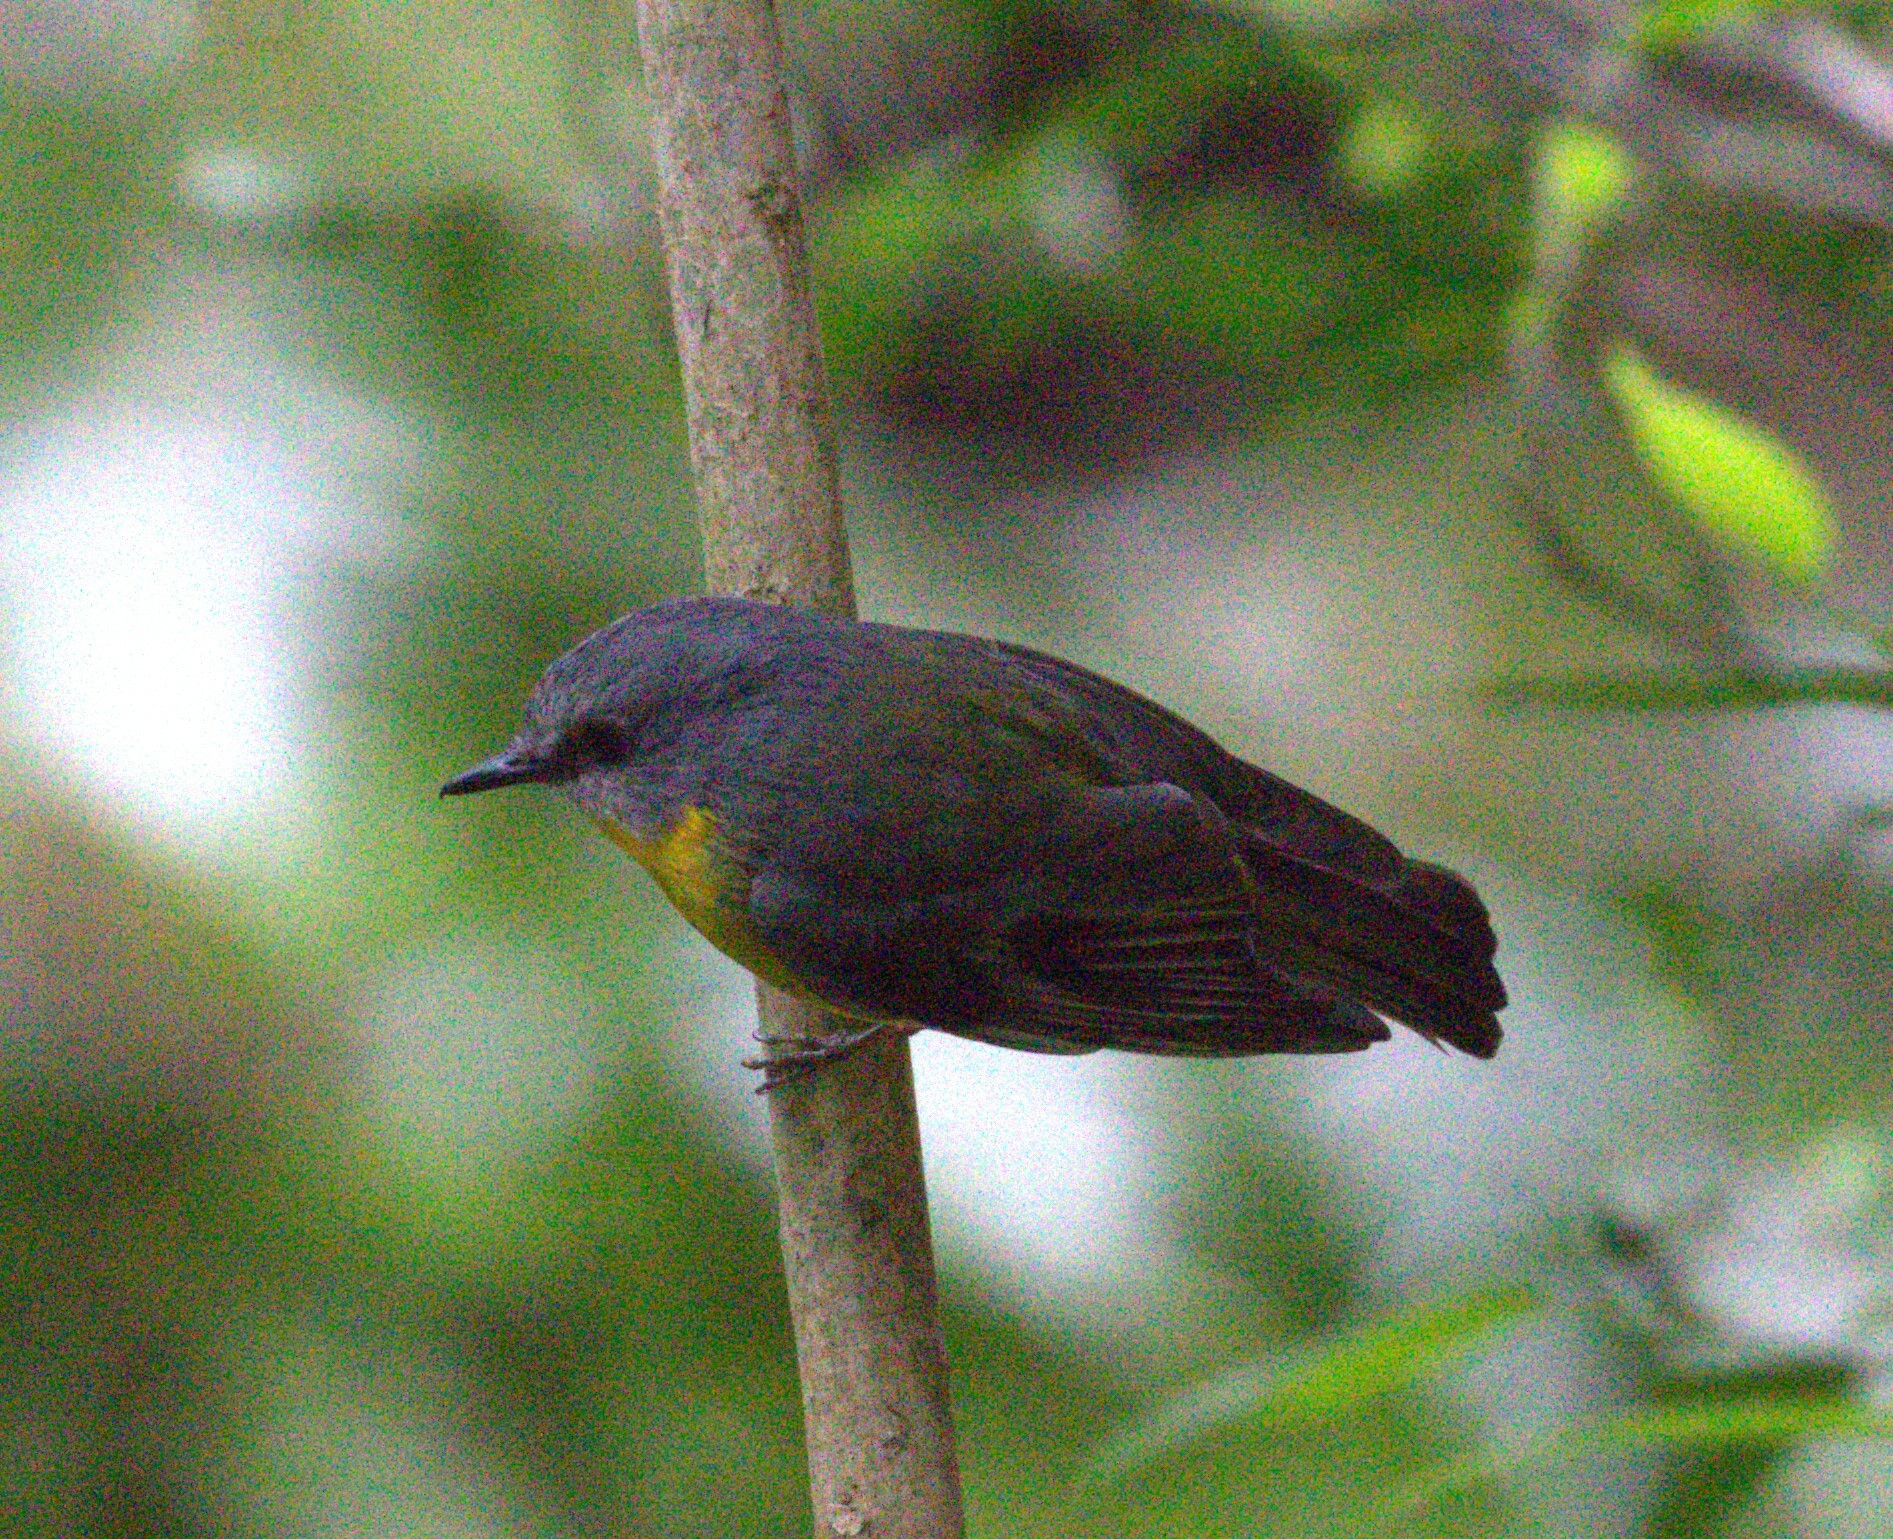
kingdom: Animalia
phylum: Chordata
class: Aves
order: Passeriformes
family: Petroicidae
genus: Eopsaltria
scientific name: Eopsaltria australis
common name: Eastern yellow robin
